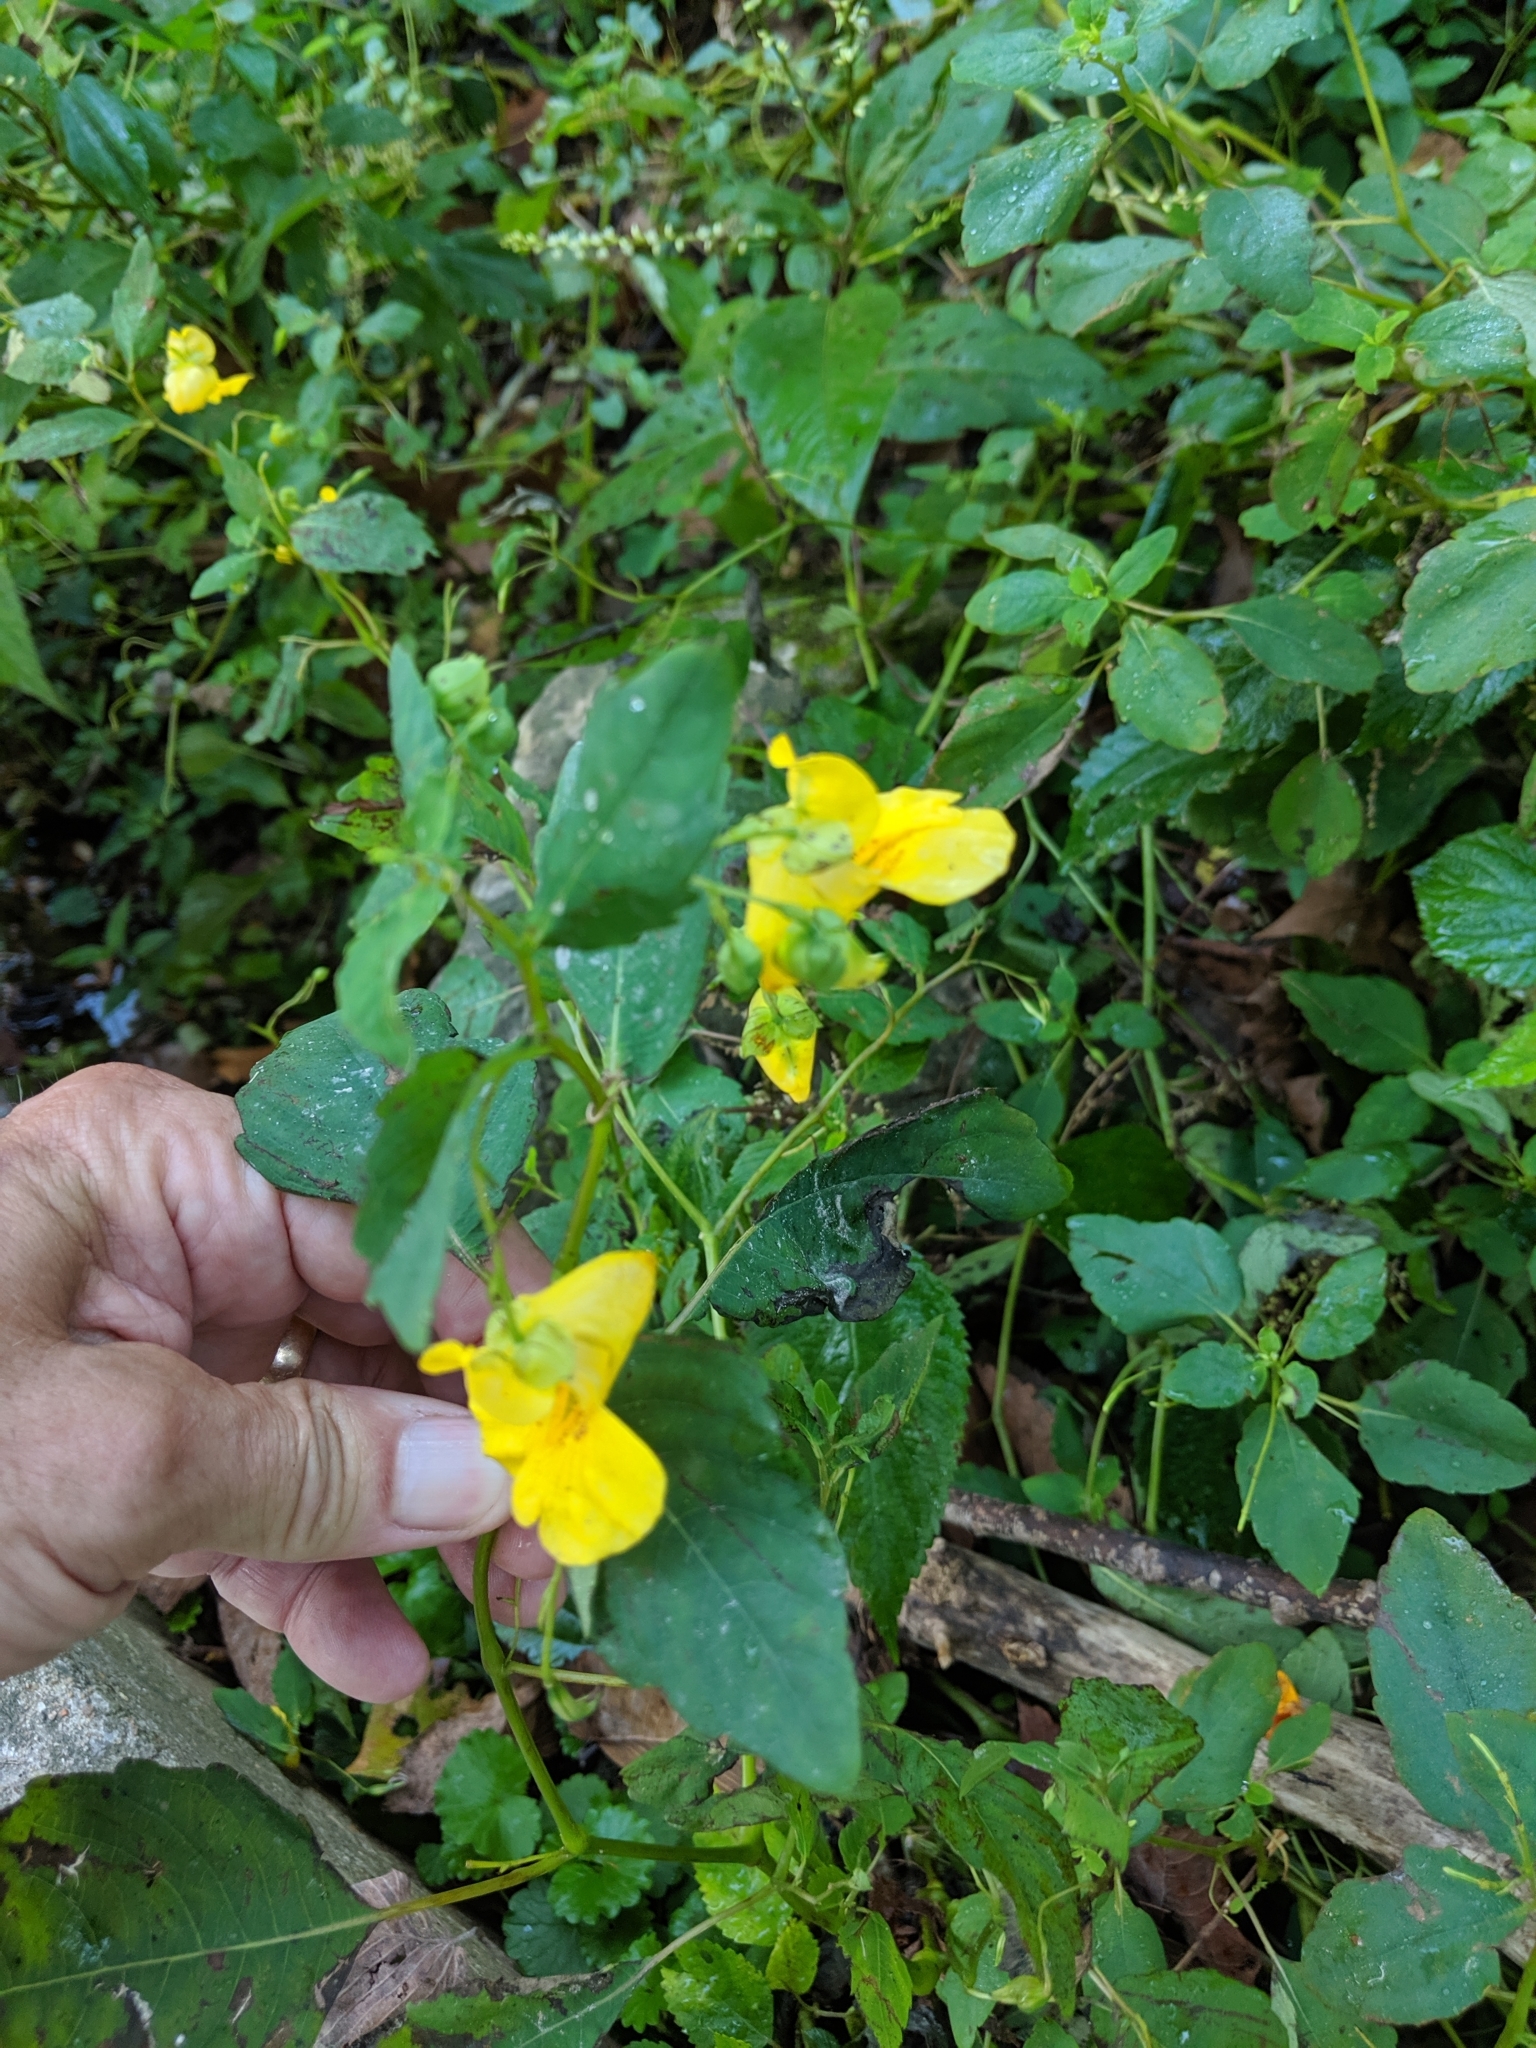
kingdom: Plantae
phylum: Tracheophyta
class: Magnoliopsida
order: Ericales
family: Balsaminaceae
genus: Impatiens
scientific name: Impatiens pallida
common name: Pale snapweed
